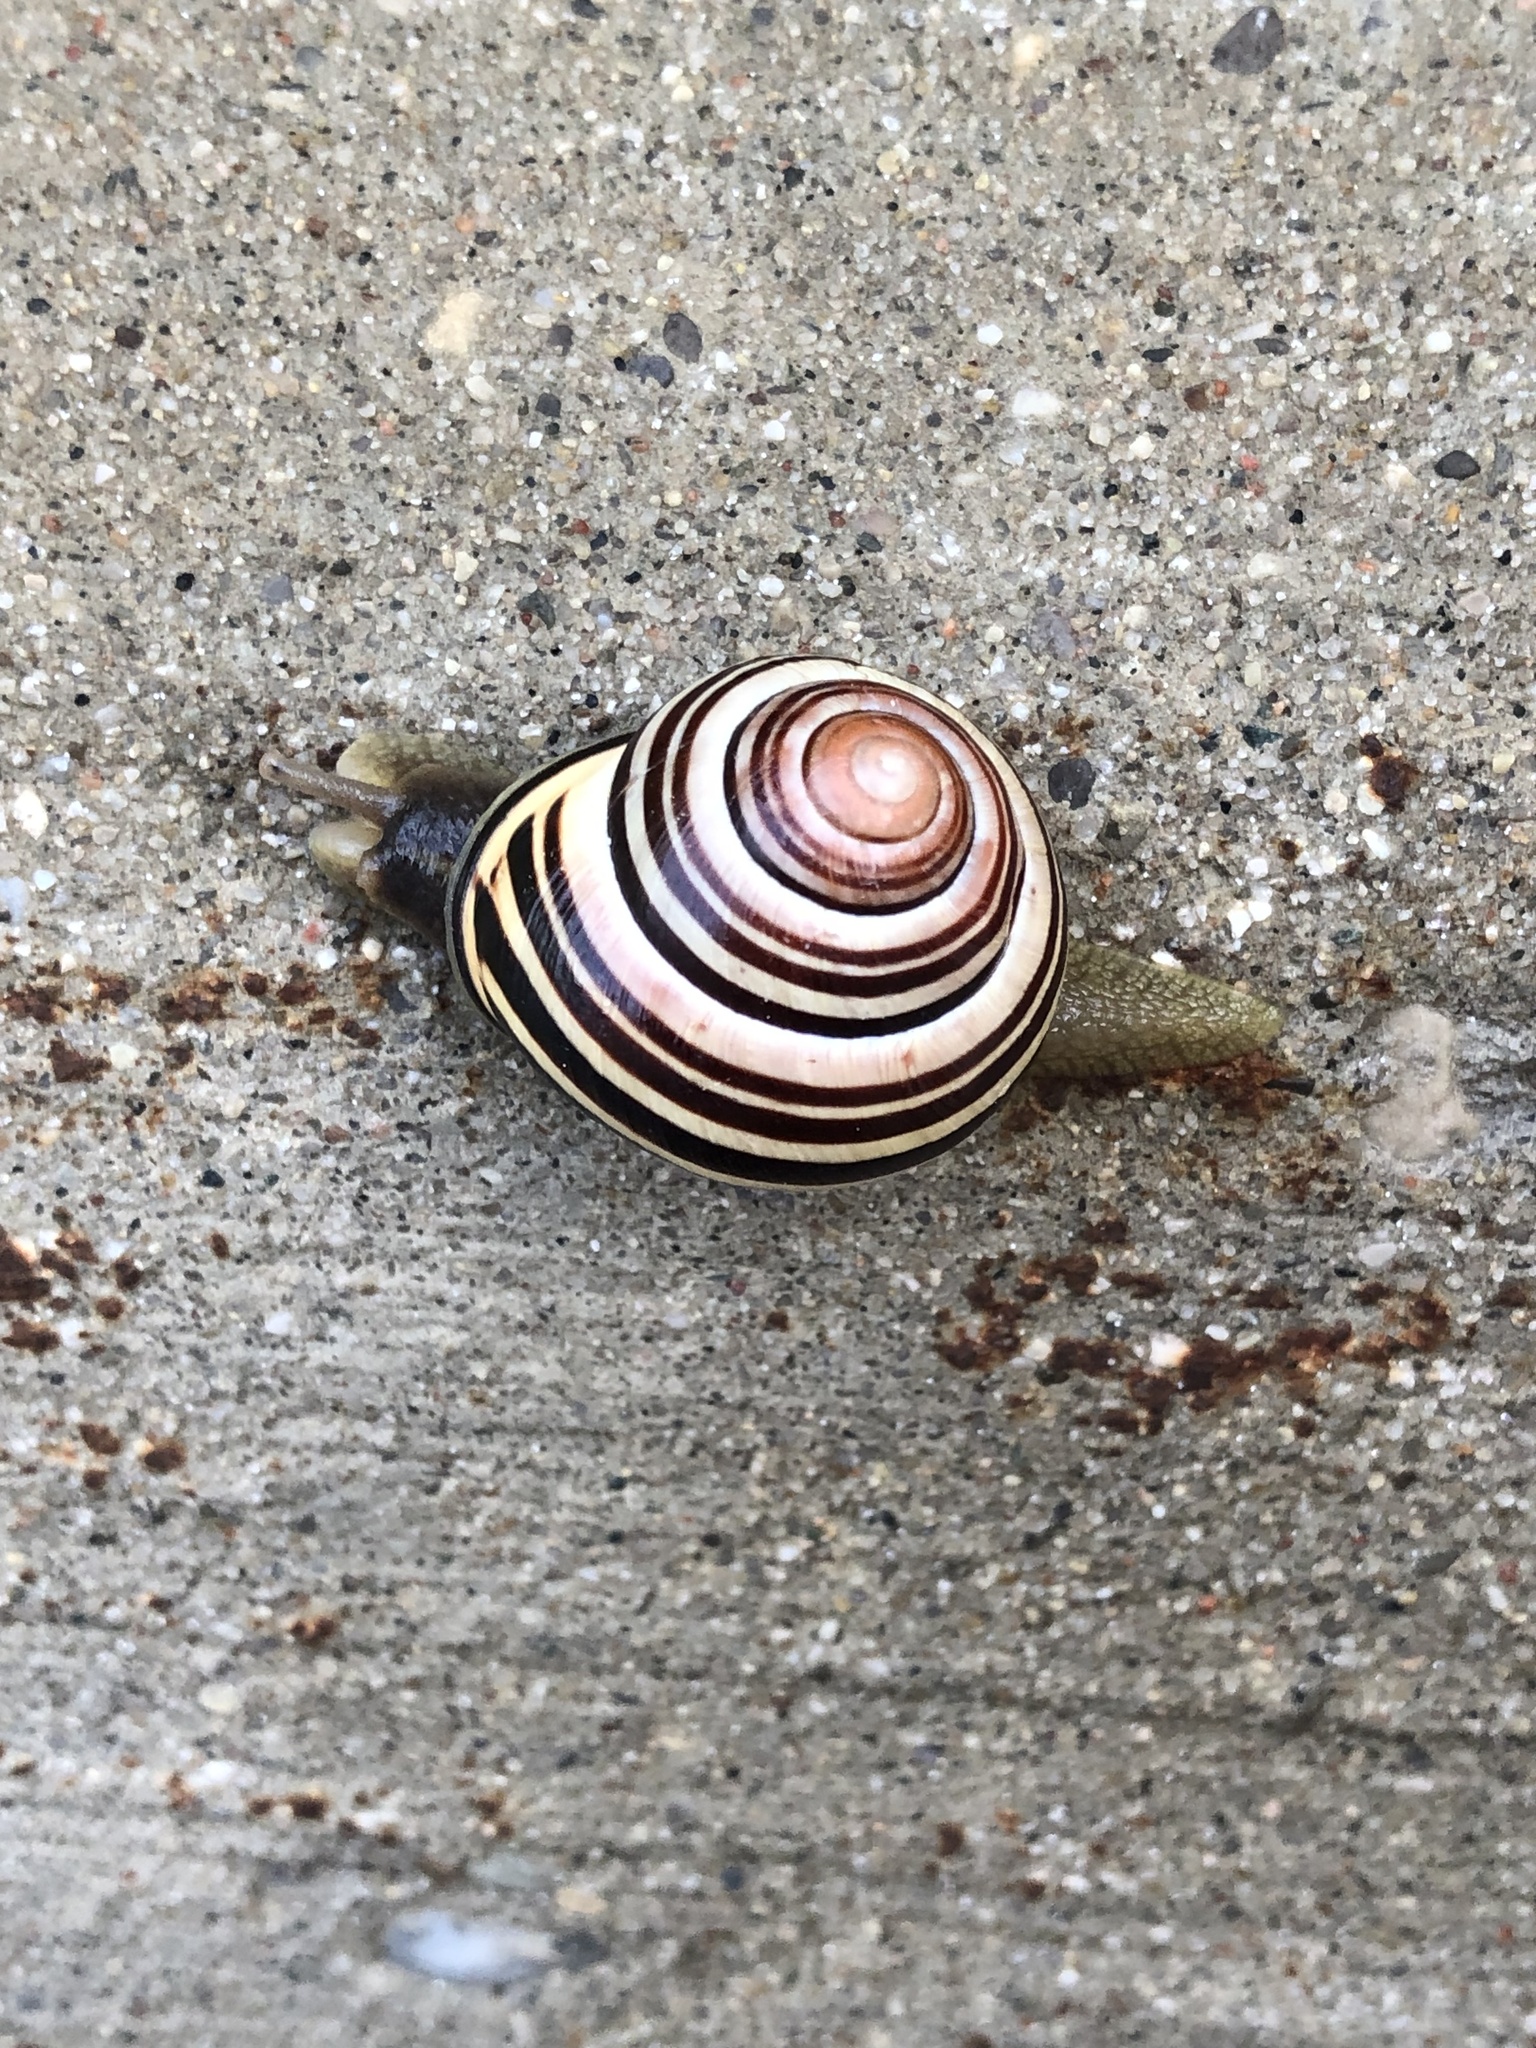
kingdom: Animalia
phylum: Mollusca
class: Gastropoda
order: Stylommatophora
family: Helicidae
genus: Cepaea
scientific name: Cepaea nemoralis
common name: Grovesnail
